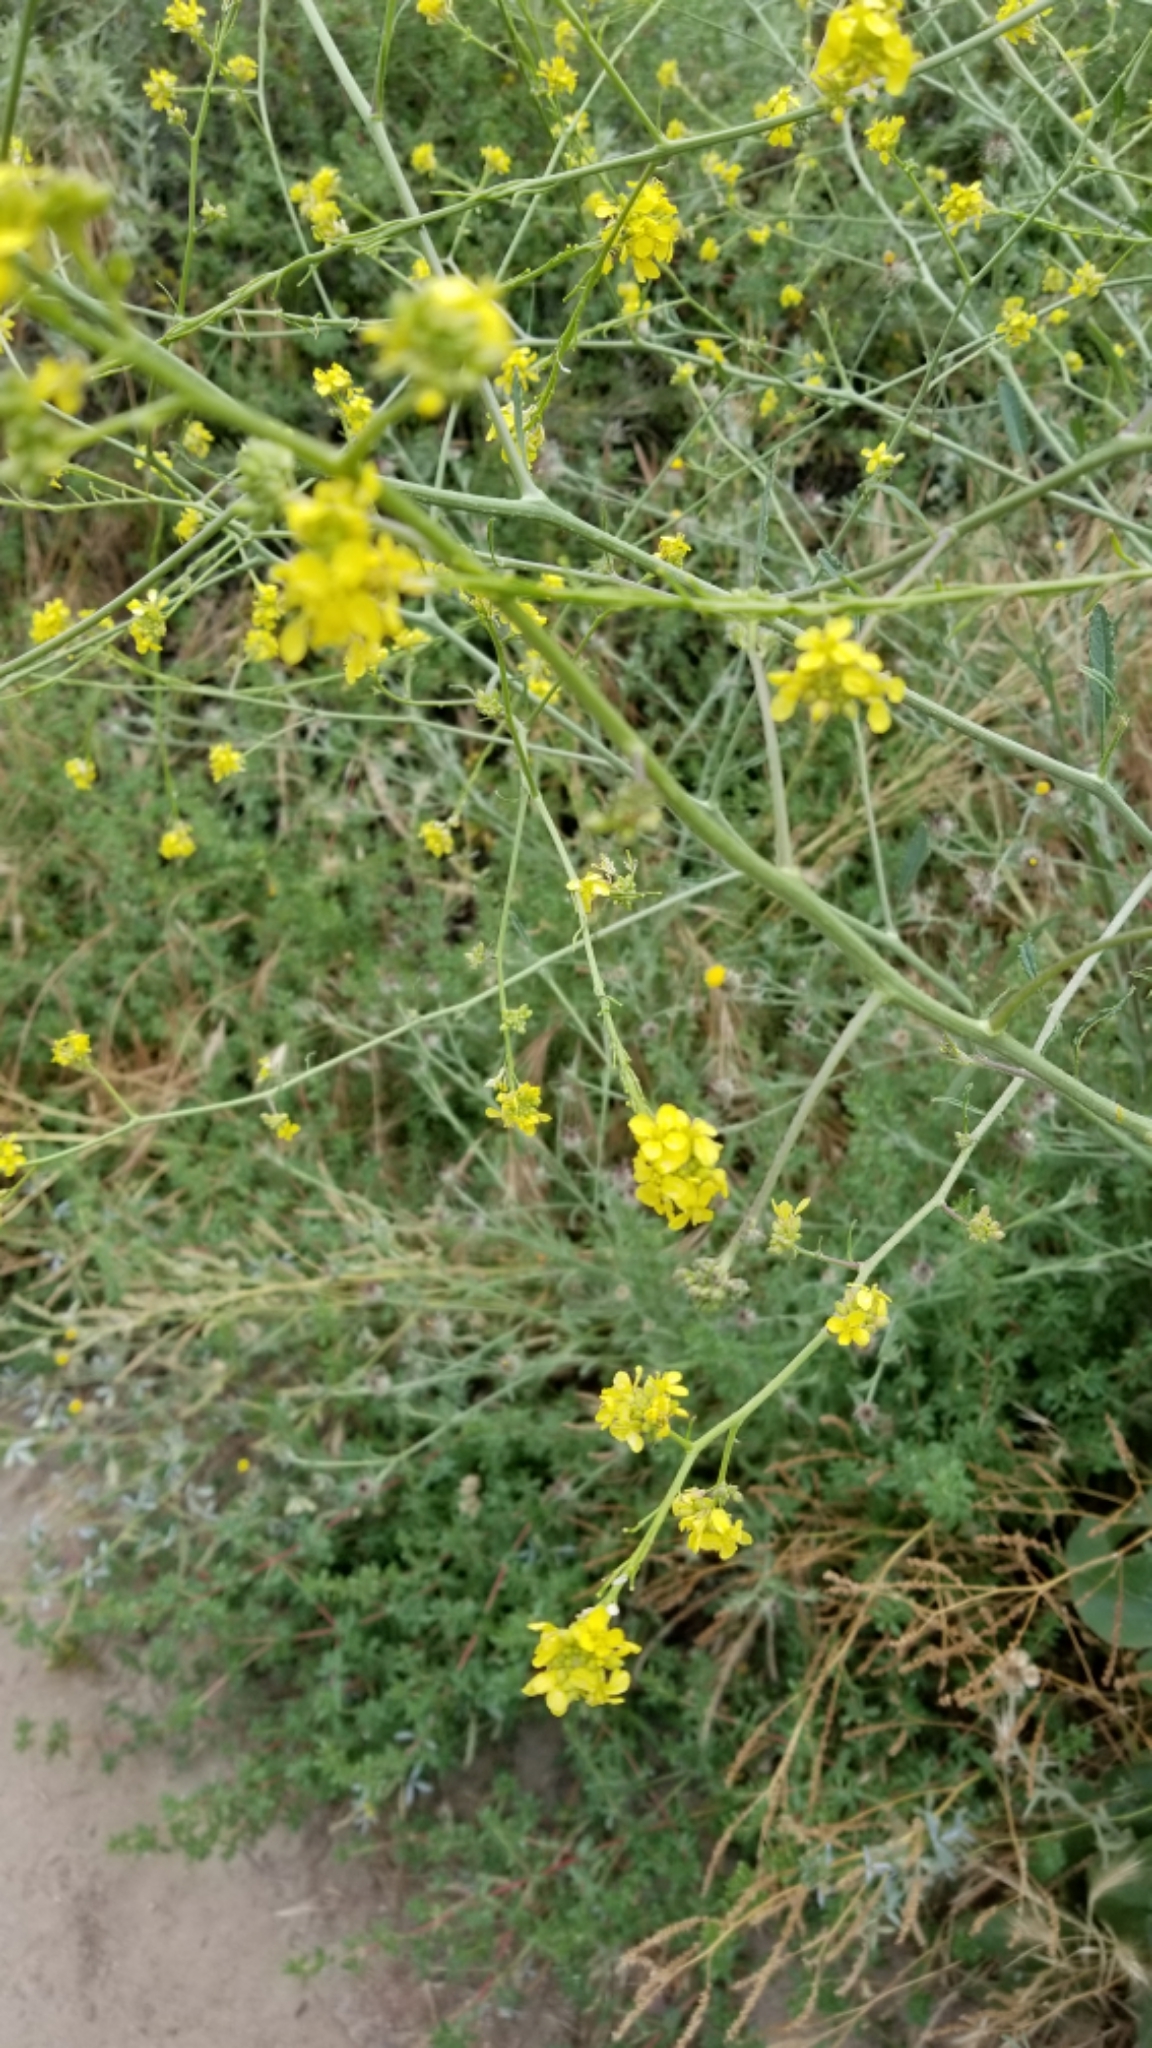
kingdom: Plantae
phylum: Tracheophyta
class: Magnoliopsida
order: Brassicales
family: Brassicaceae
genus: Hirschfeldia
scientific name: Hirschfeldia incana
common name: Hoary mustard
